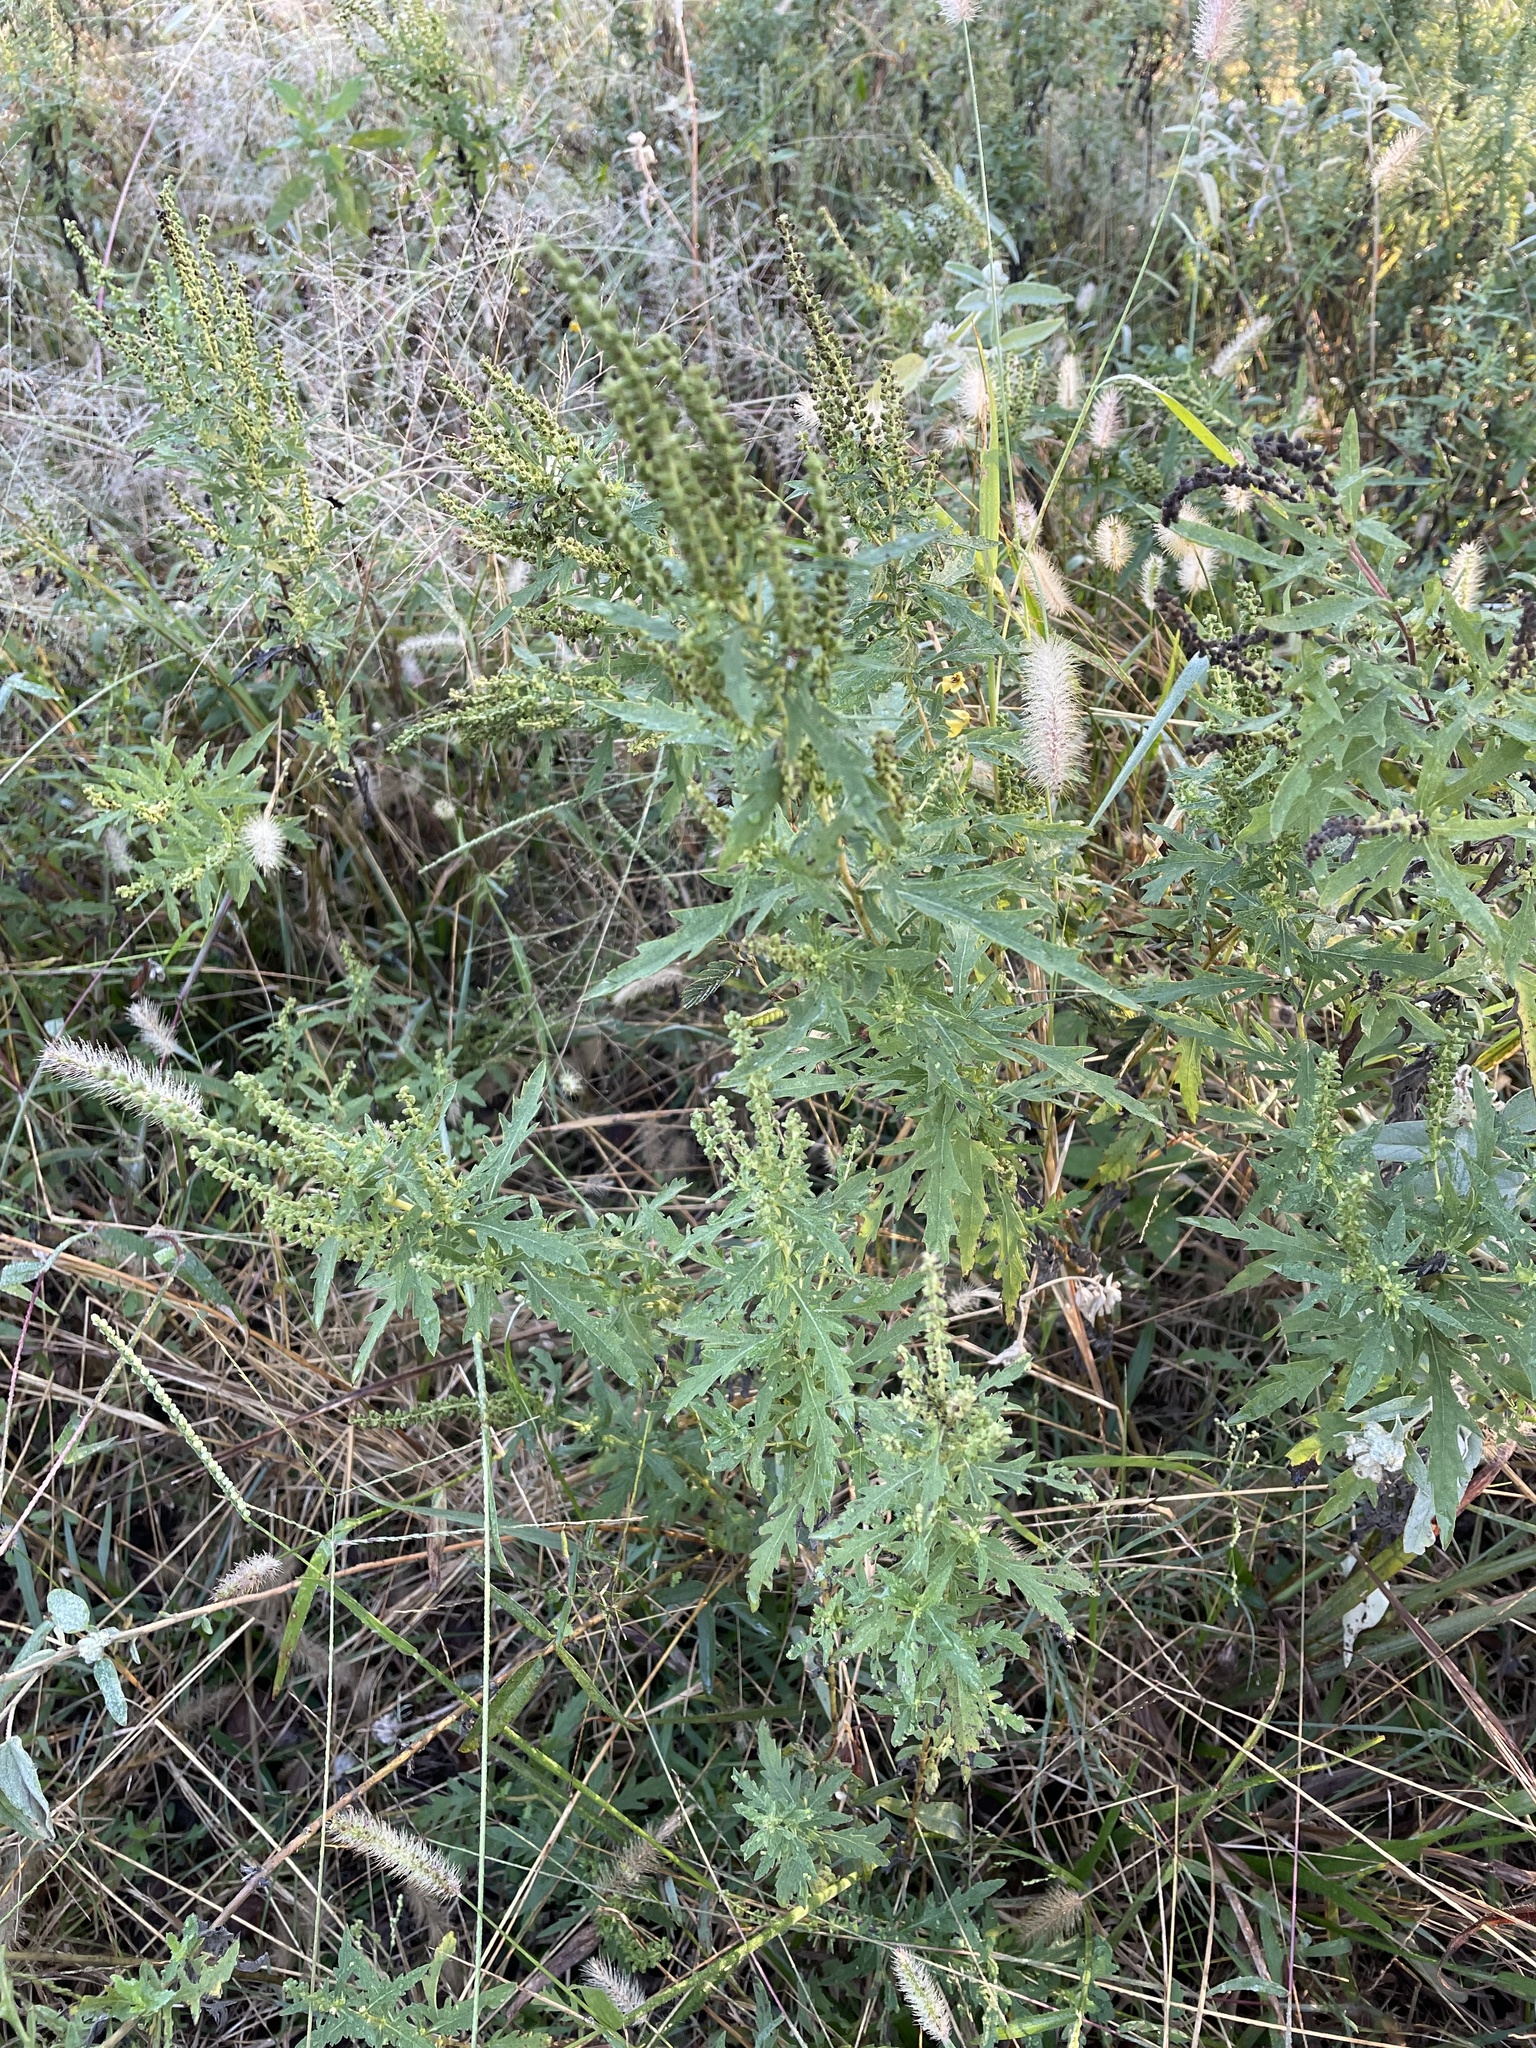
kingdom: Plantae
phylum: Tracheophyta
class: Magnoliopsida
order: Asterales
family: Asteraceae
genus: Ambrosia
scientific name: Ambrosia psilostachya
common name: Perennial ragweed
